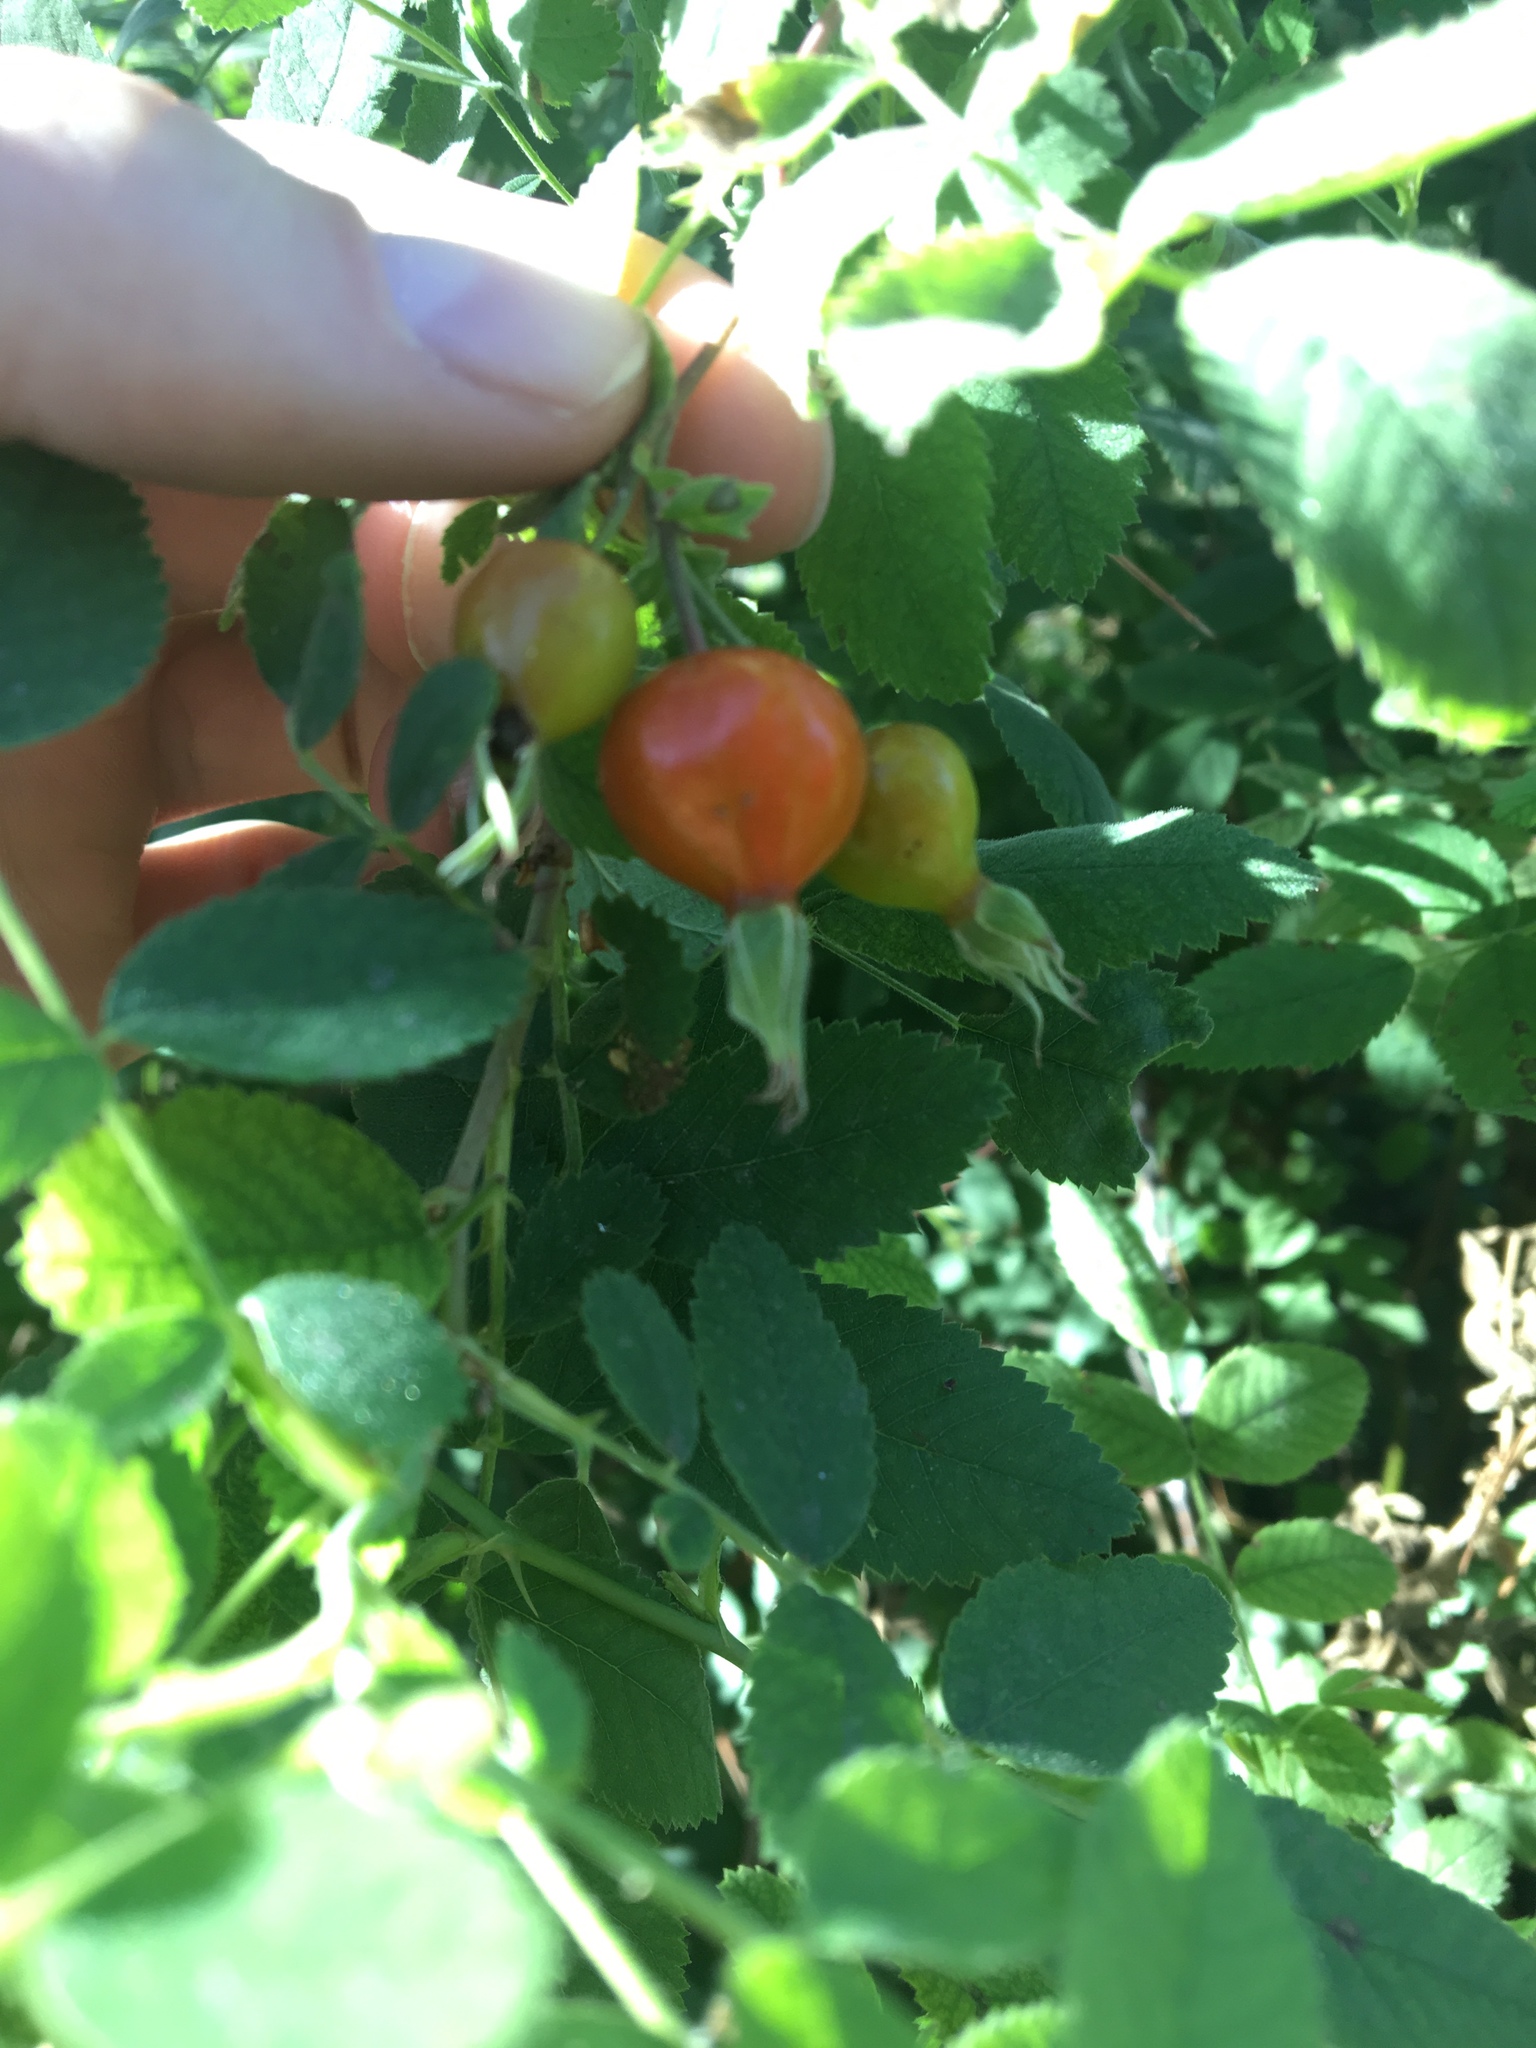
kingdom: Plantae
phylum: Tracheophyta
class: Magnoliopsida
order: Rosales
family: Rosaceae
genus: Rosa
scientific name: Rosa californica
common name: California rose
